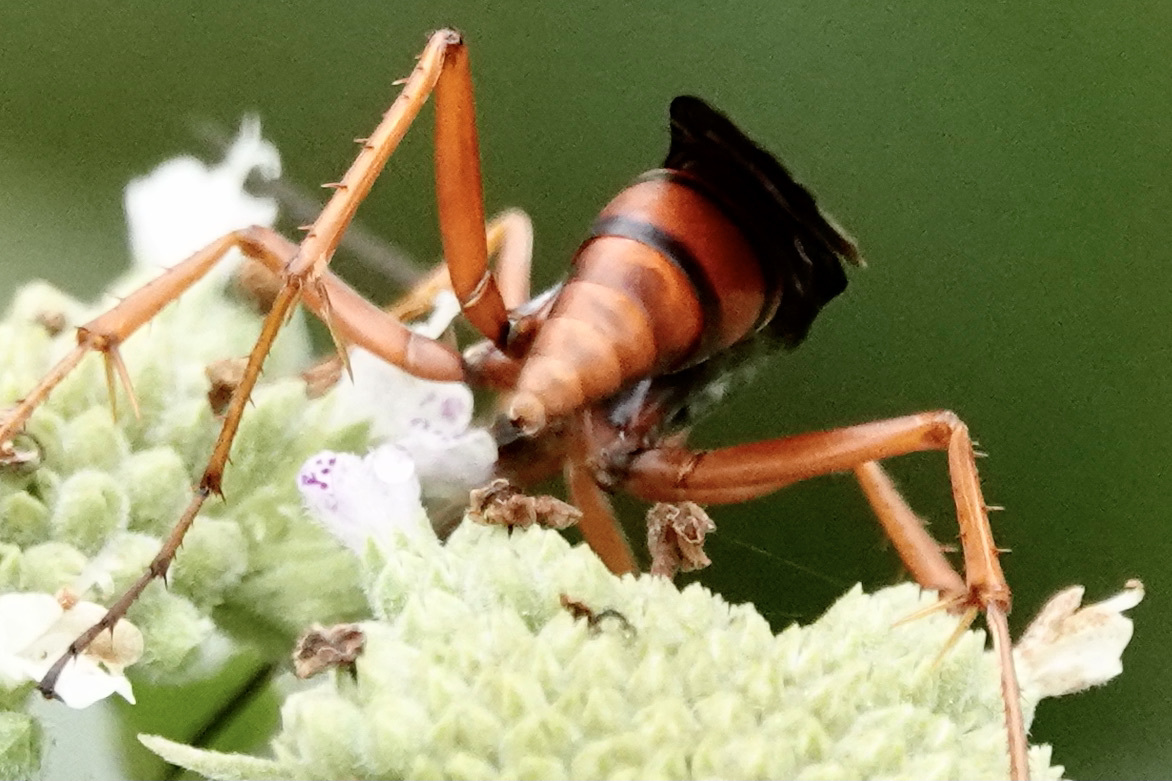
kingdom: Animalia
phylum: Arthropoda
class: Insecta
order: Hymenoptera
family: Pompilidae
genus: Tachypompilus
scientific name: Tachypompilus ferrugineus
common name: Rusty spider wasp
